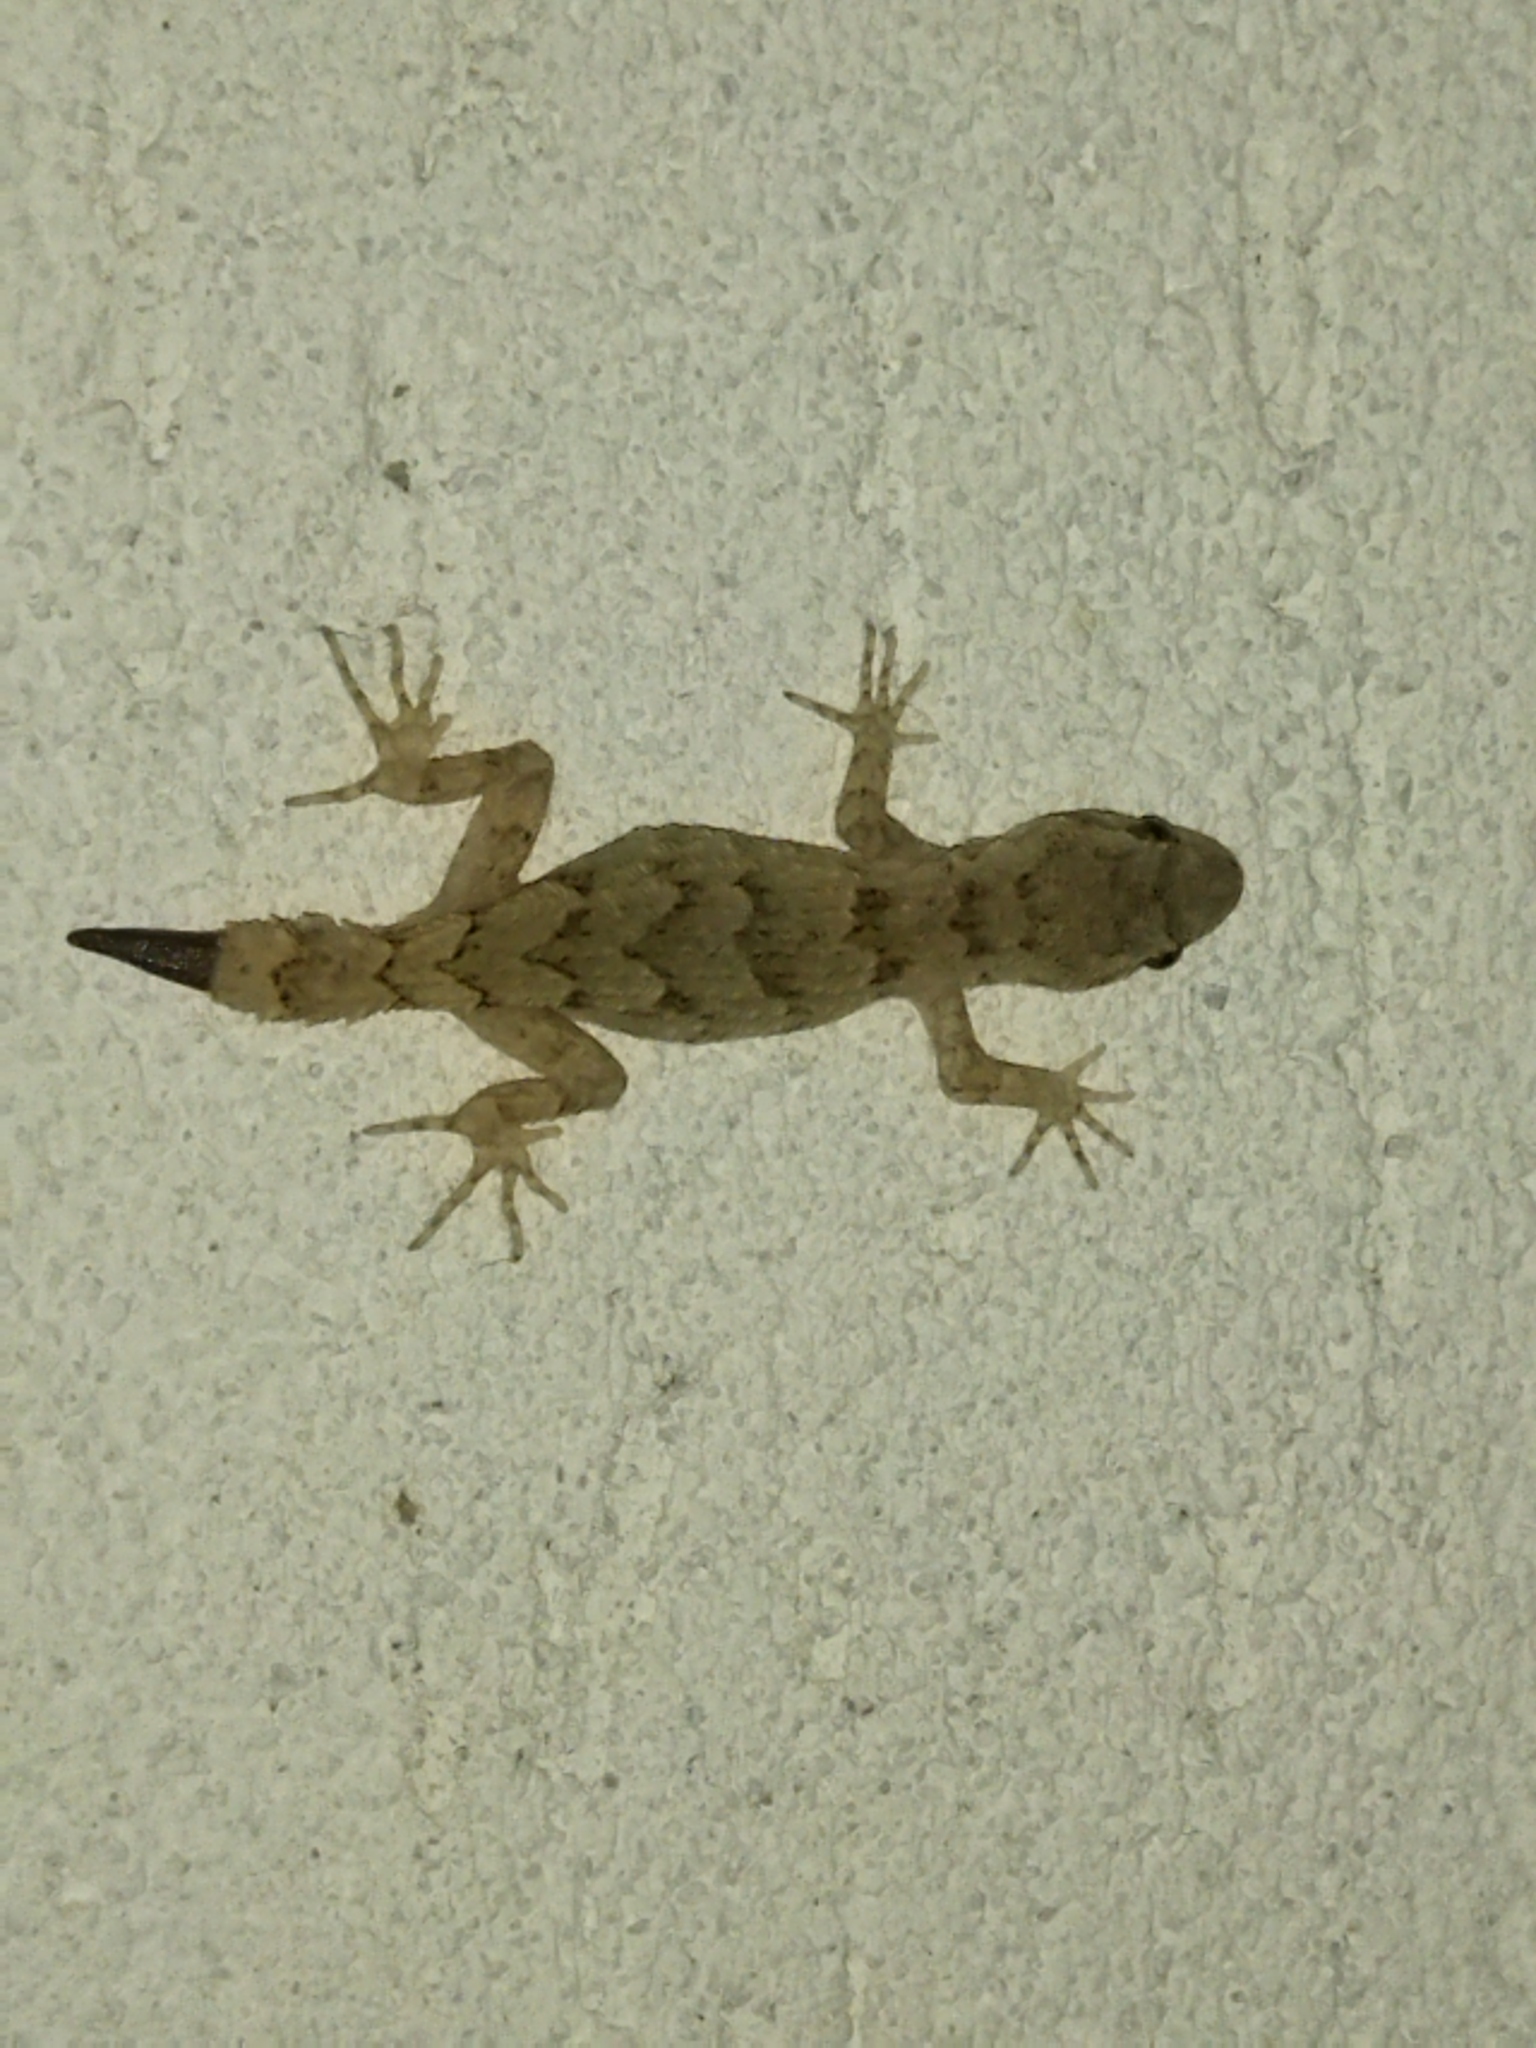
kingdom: Animalia
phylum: Chordata
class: Squamata
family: Gekkonidae
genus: Mediodactylus
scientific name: Mediodactylus kotschyi
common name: Kotschy's gecko
